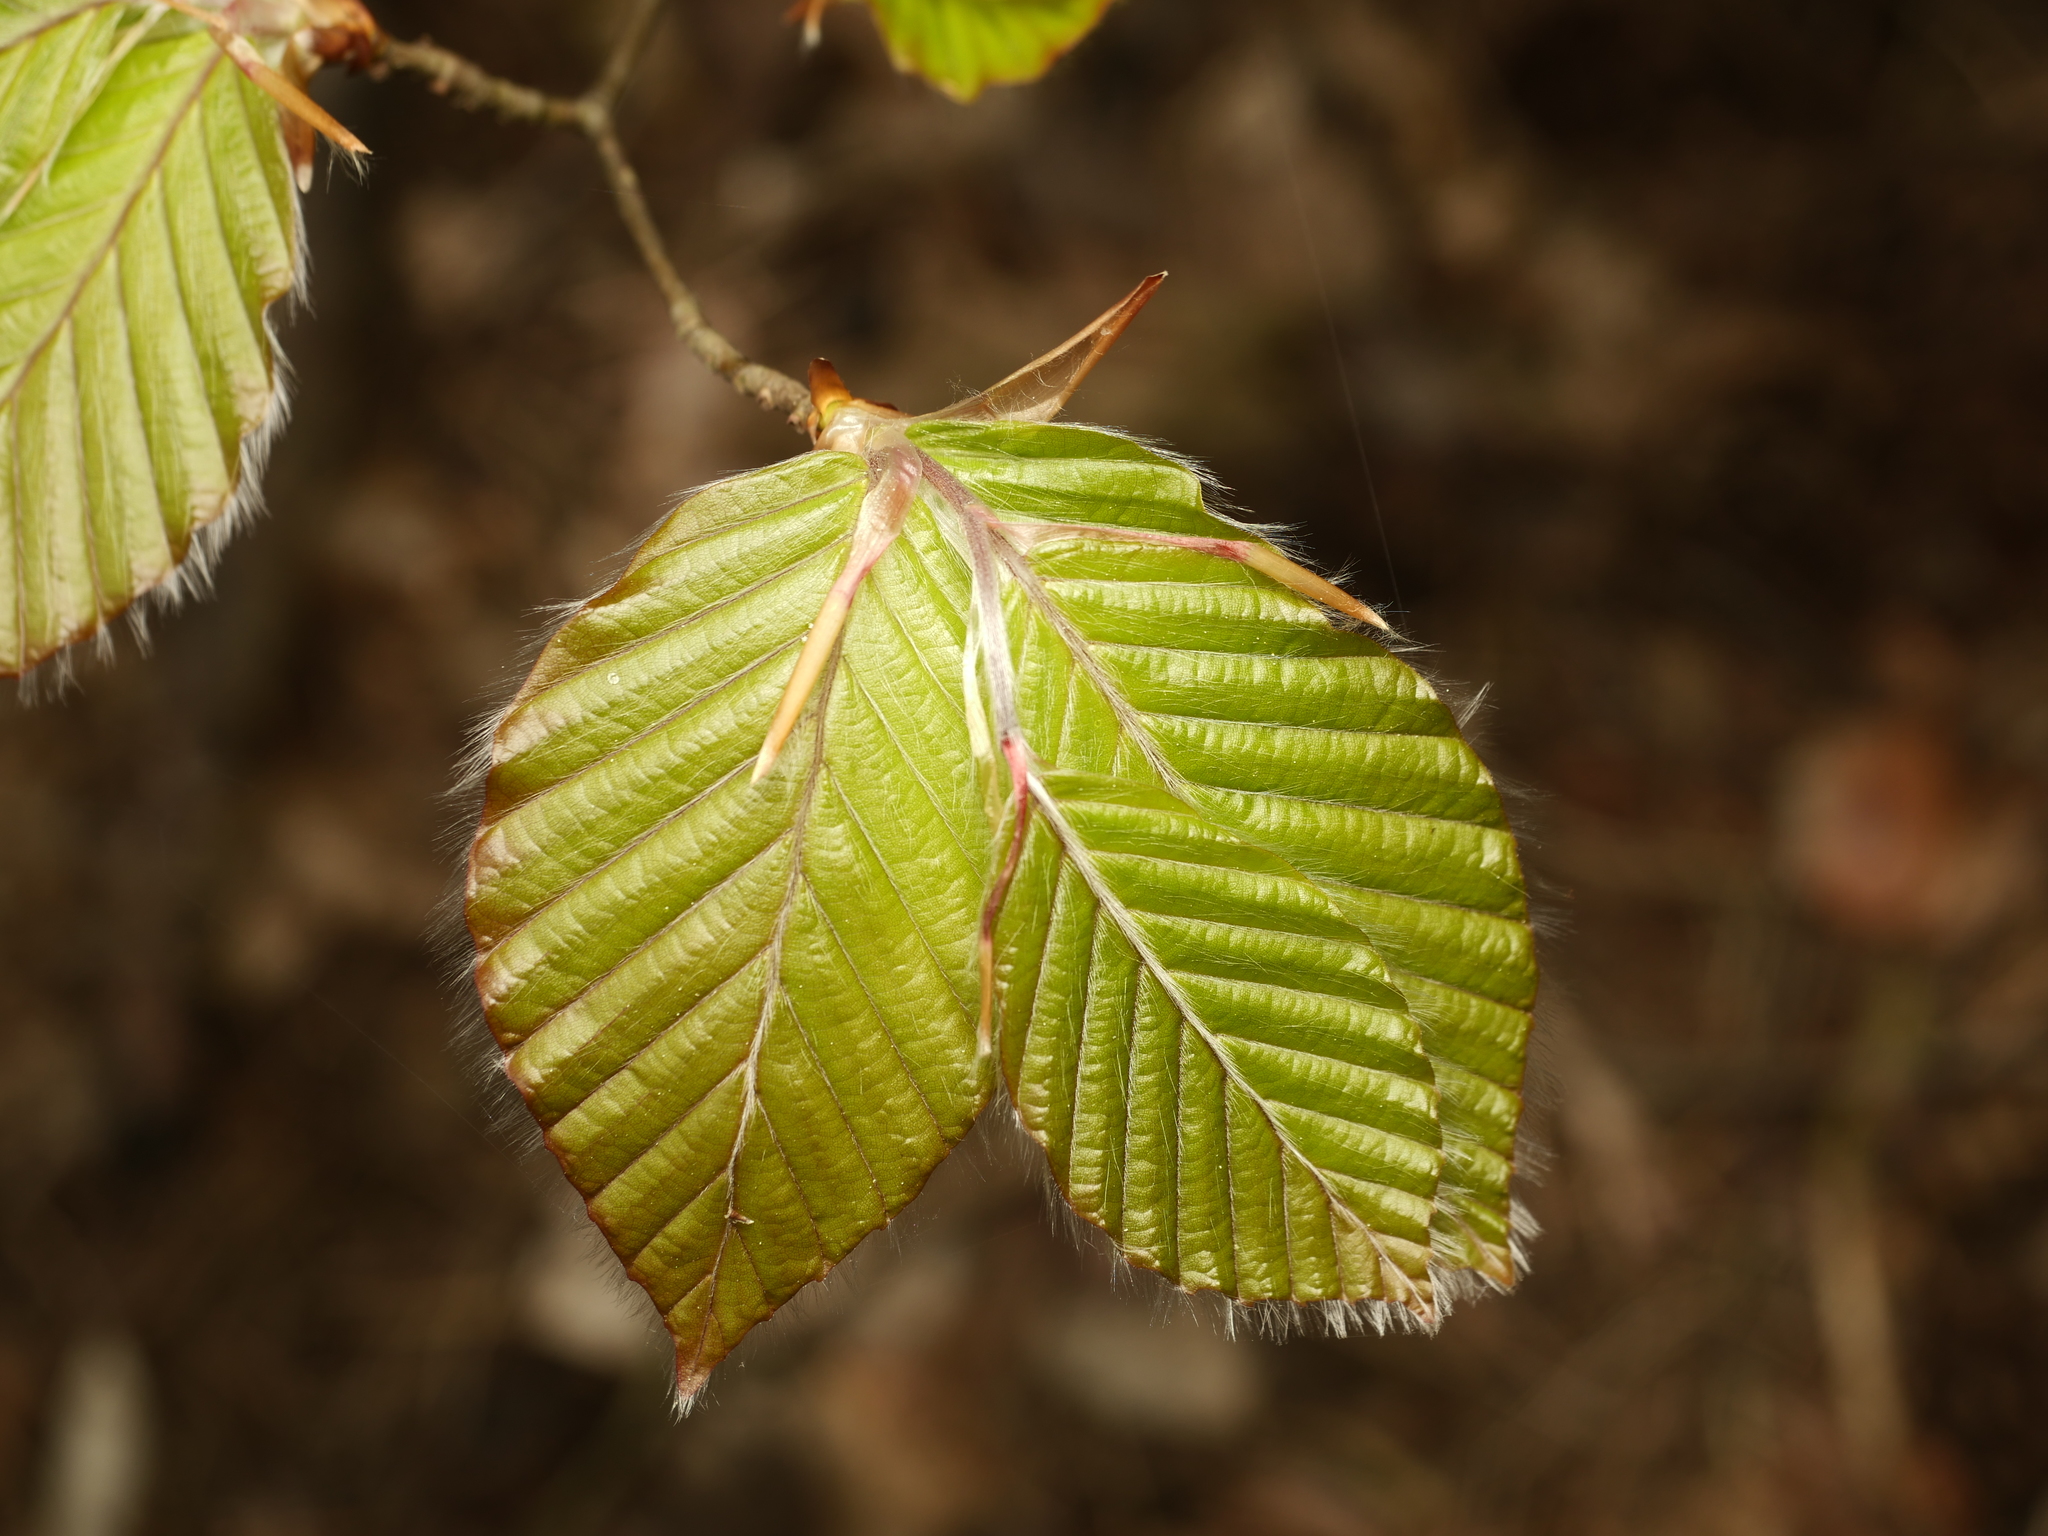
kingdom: Plantae
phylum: Tracheophyta
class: Magnoliopsida
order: Fagales
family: Fagaceae
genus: Fagus
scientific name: Fagus sylvatica
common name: Beech
